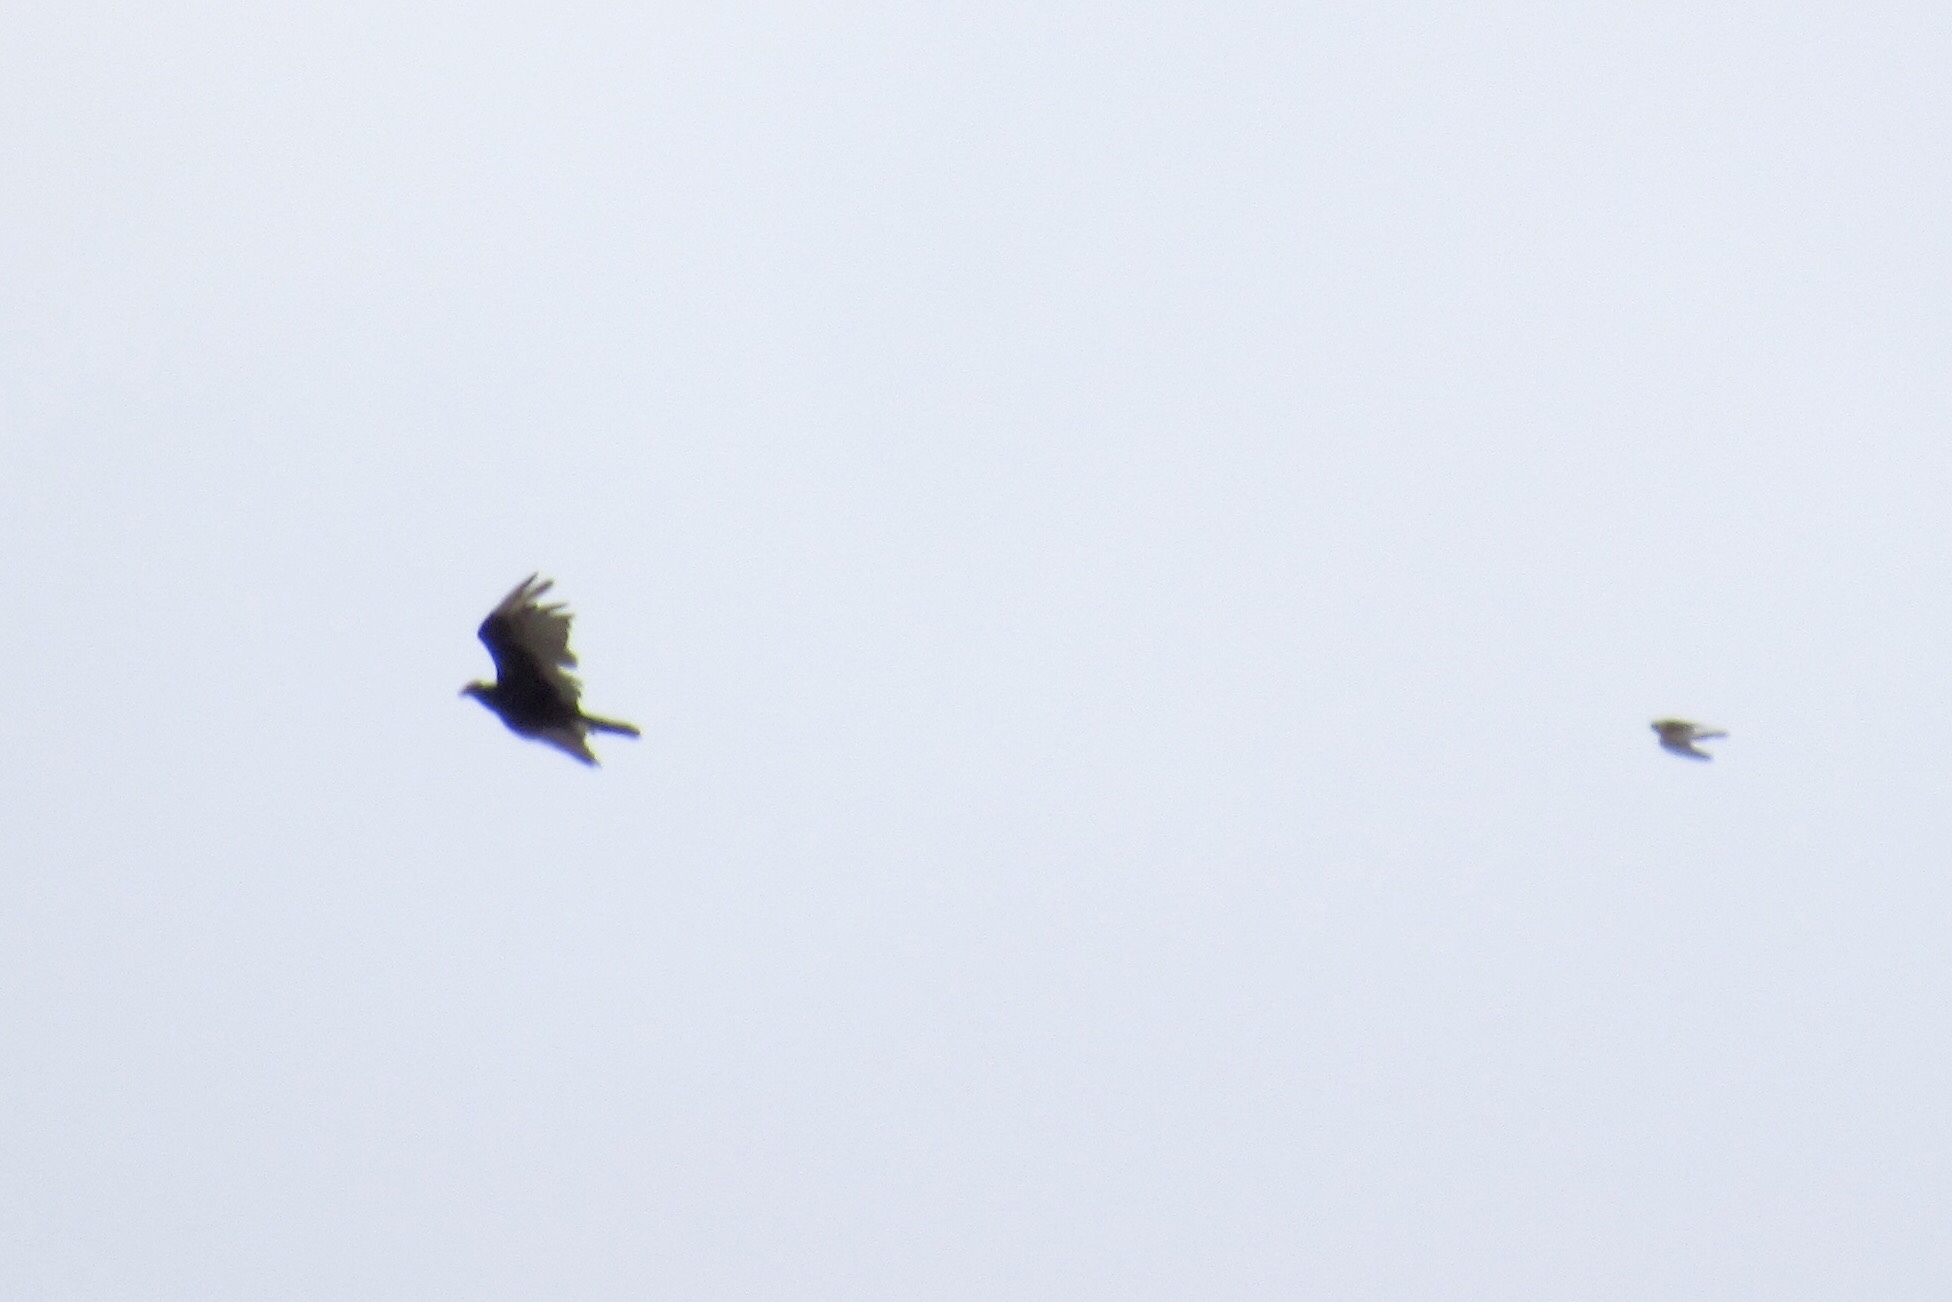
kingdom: Animalia
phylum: Chordata
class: Aves
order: Accipitriformes
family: Cathartidae
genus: Cathartes
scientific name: Cathartes aura
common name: Turkey vulture
